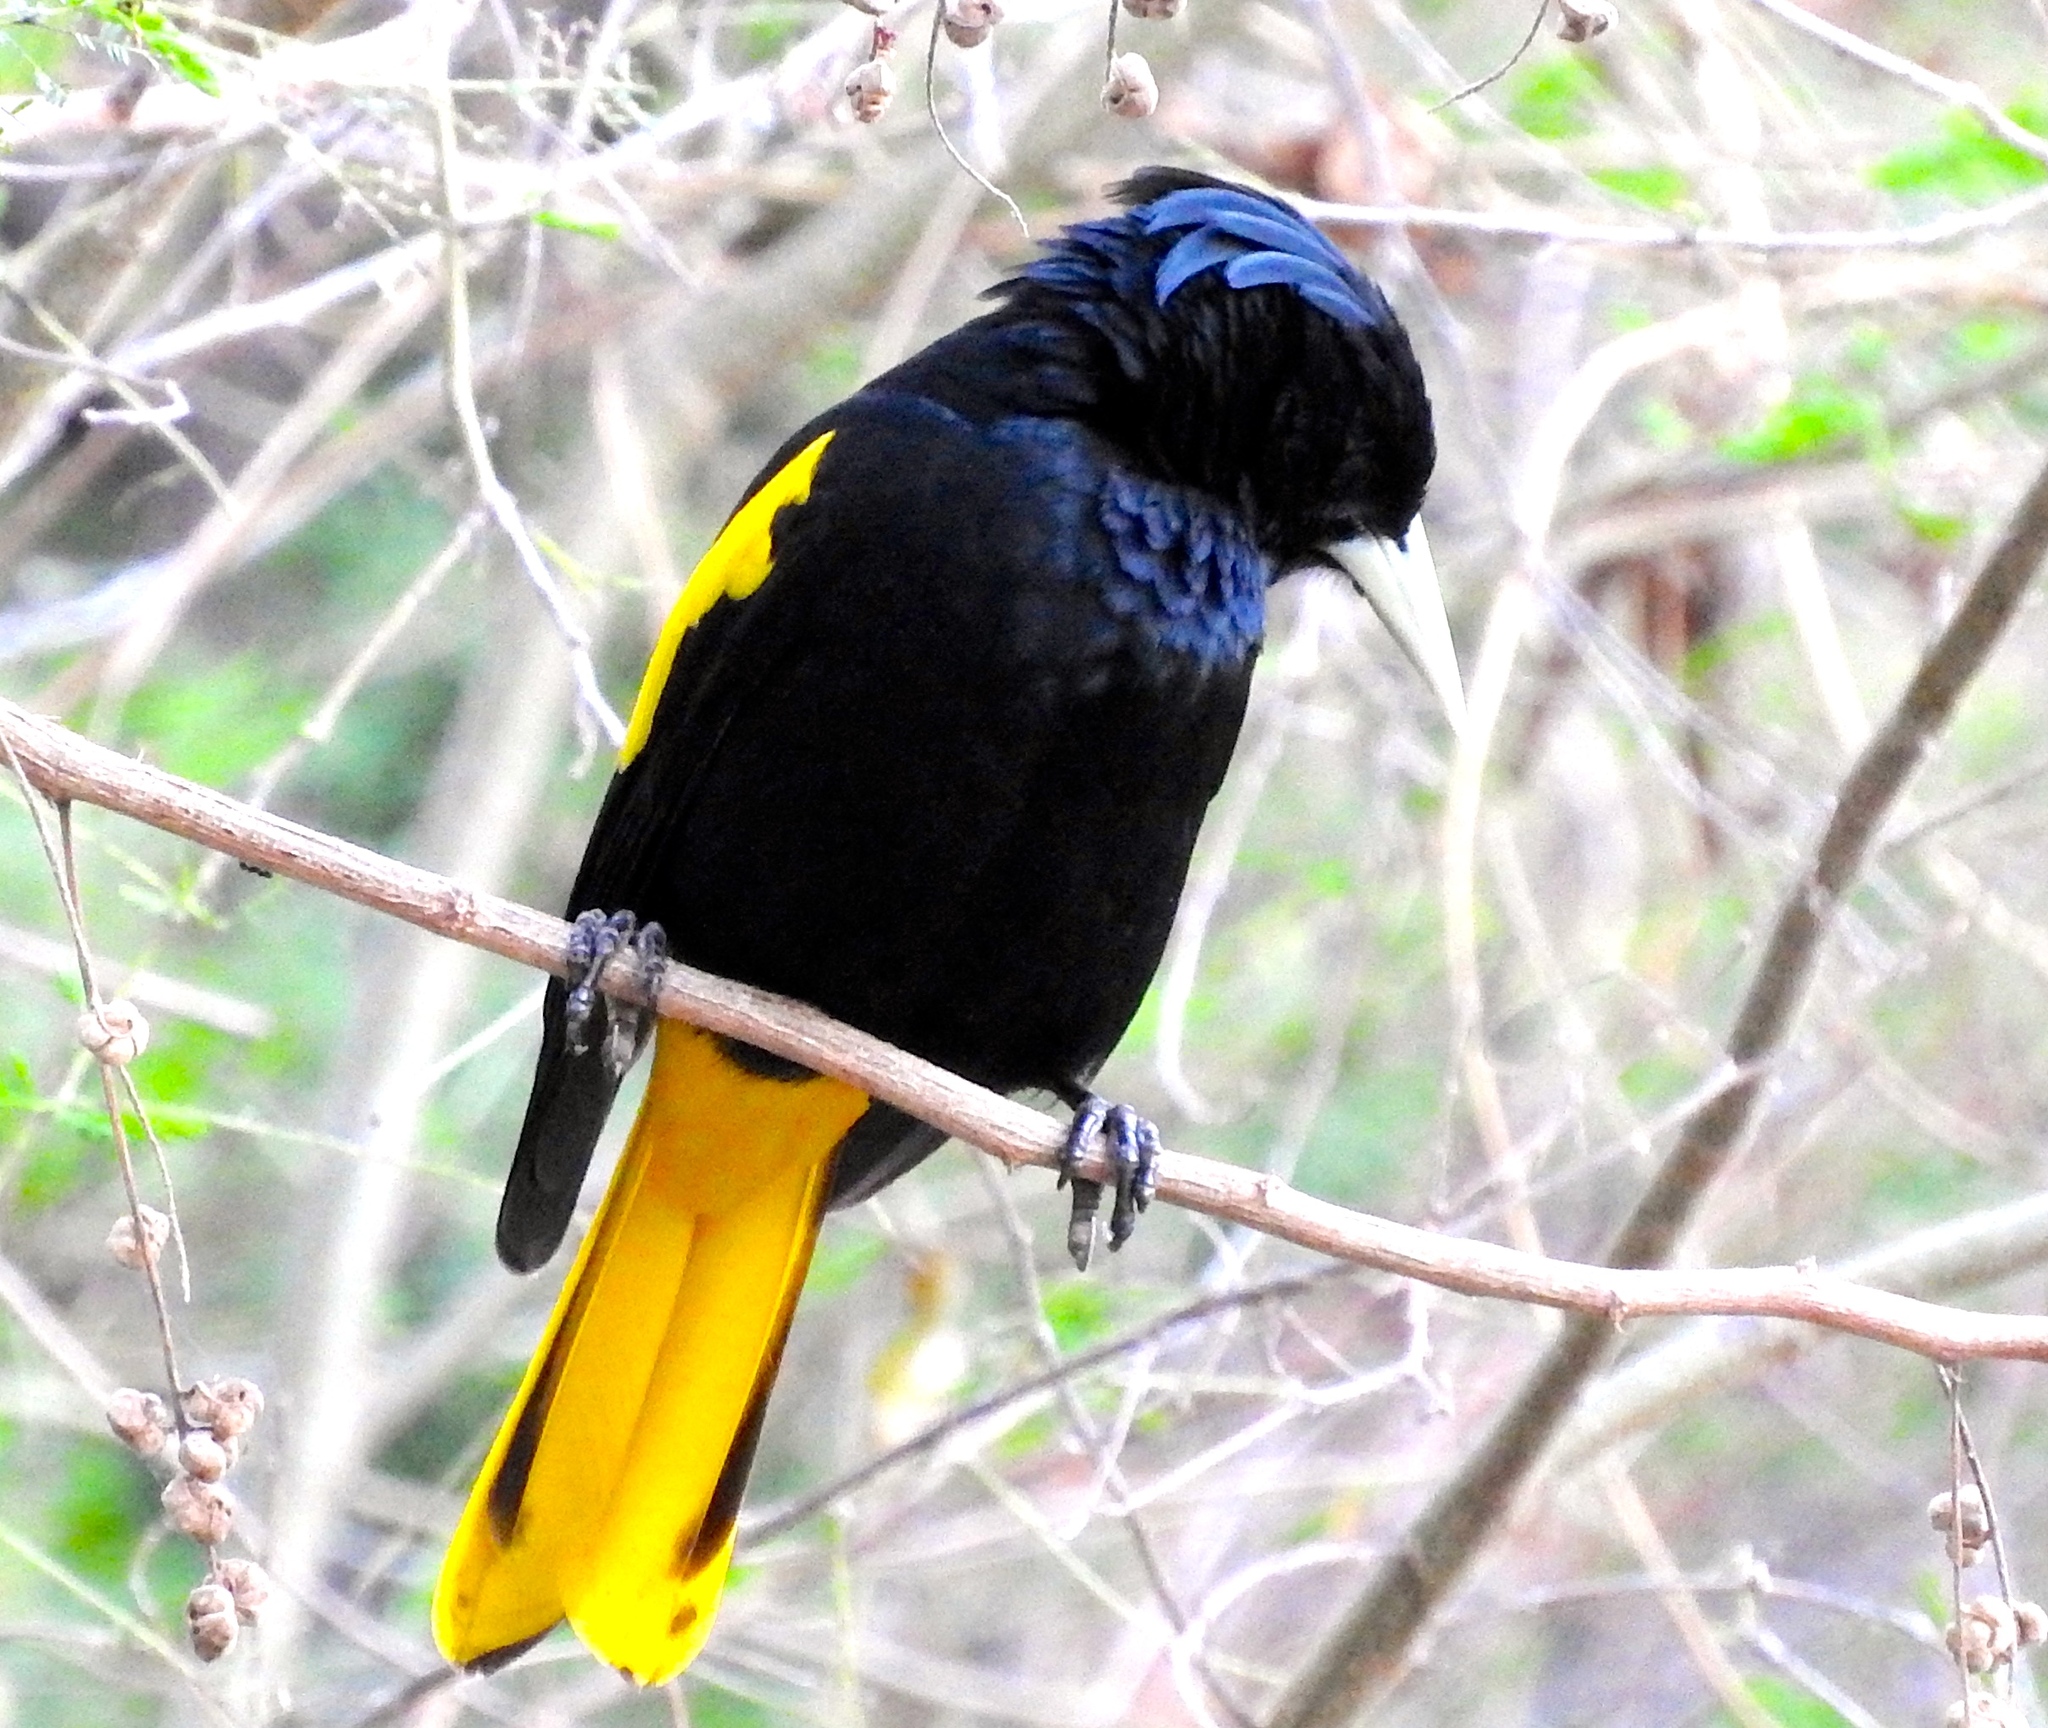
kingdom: Animalia
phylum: Chordata
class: Aves
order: Passeriformes
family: Icteridae
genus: Cacicus
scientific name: Cacicus melanicterus
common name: Yellow-winged cacique
